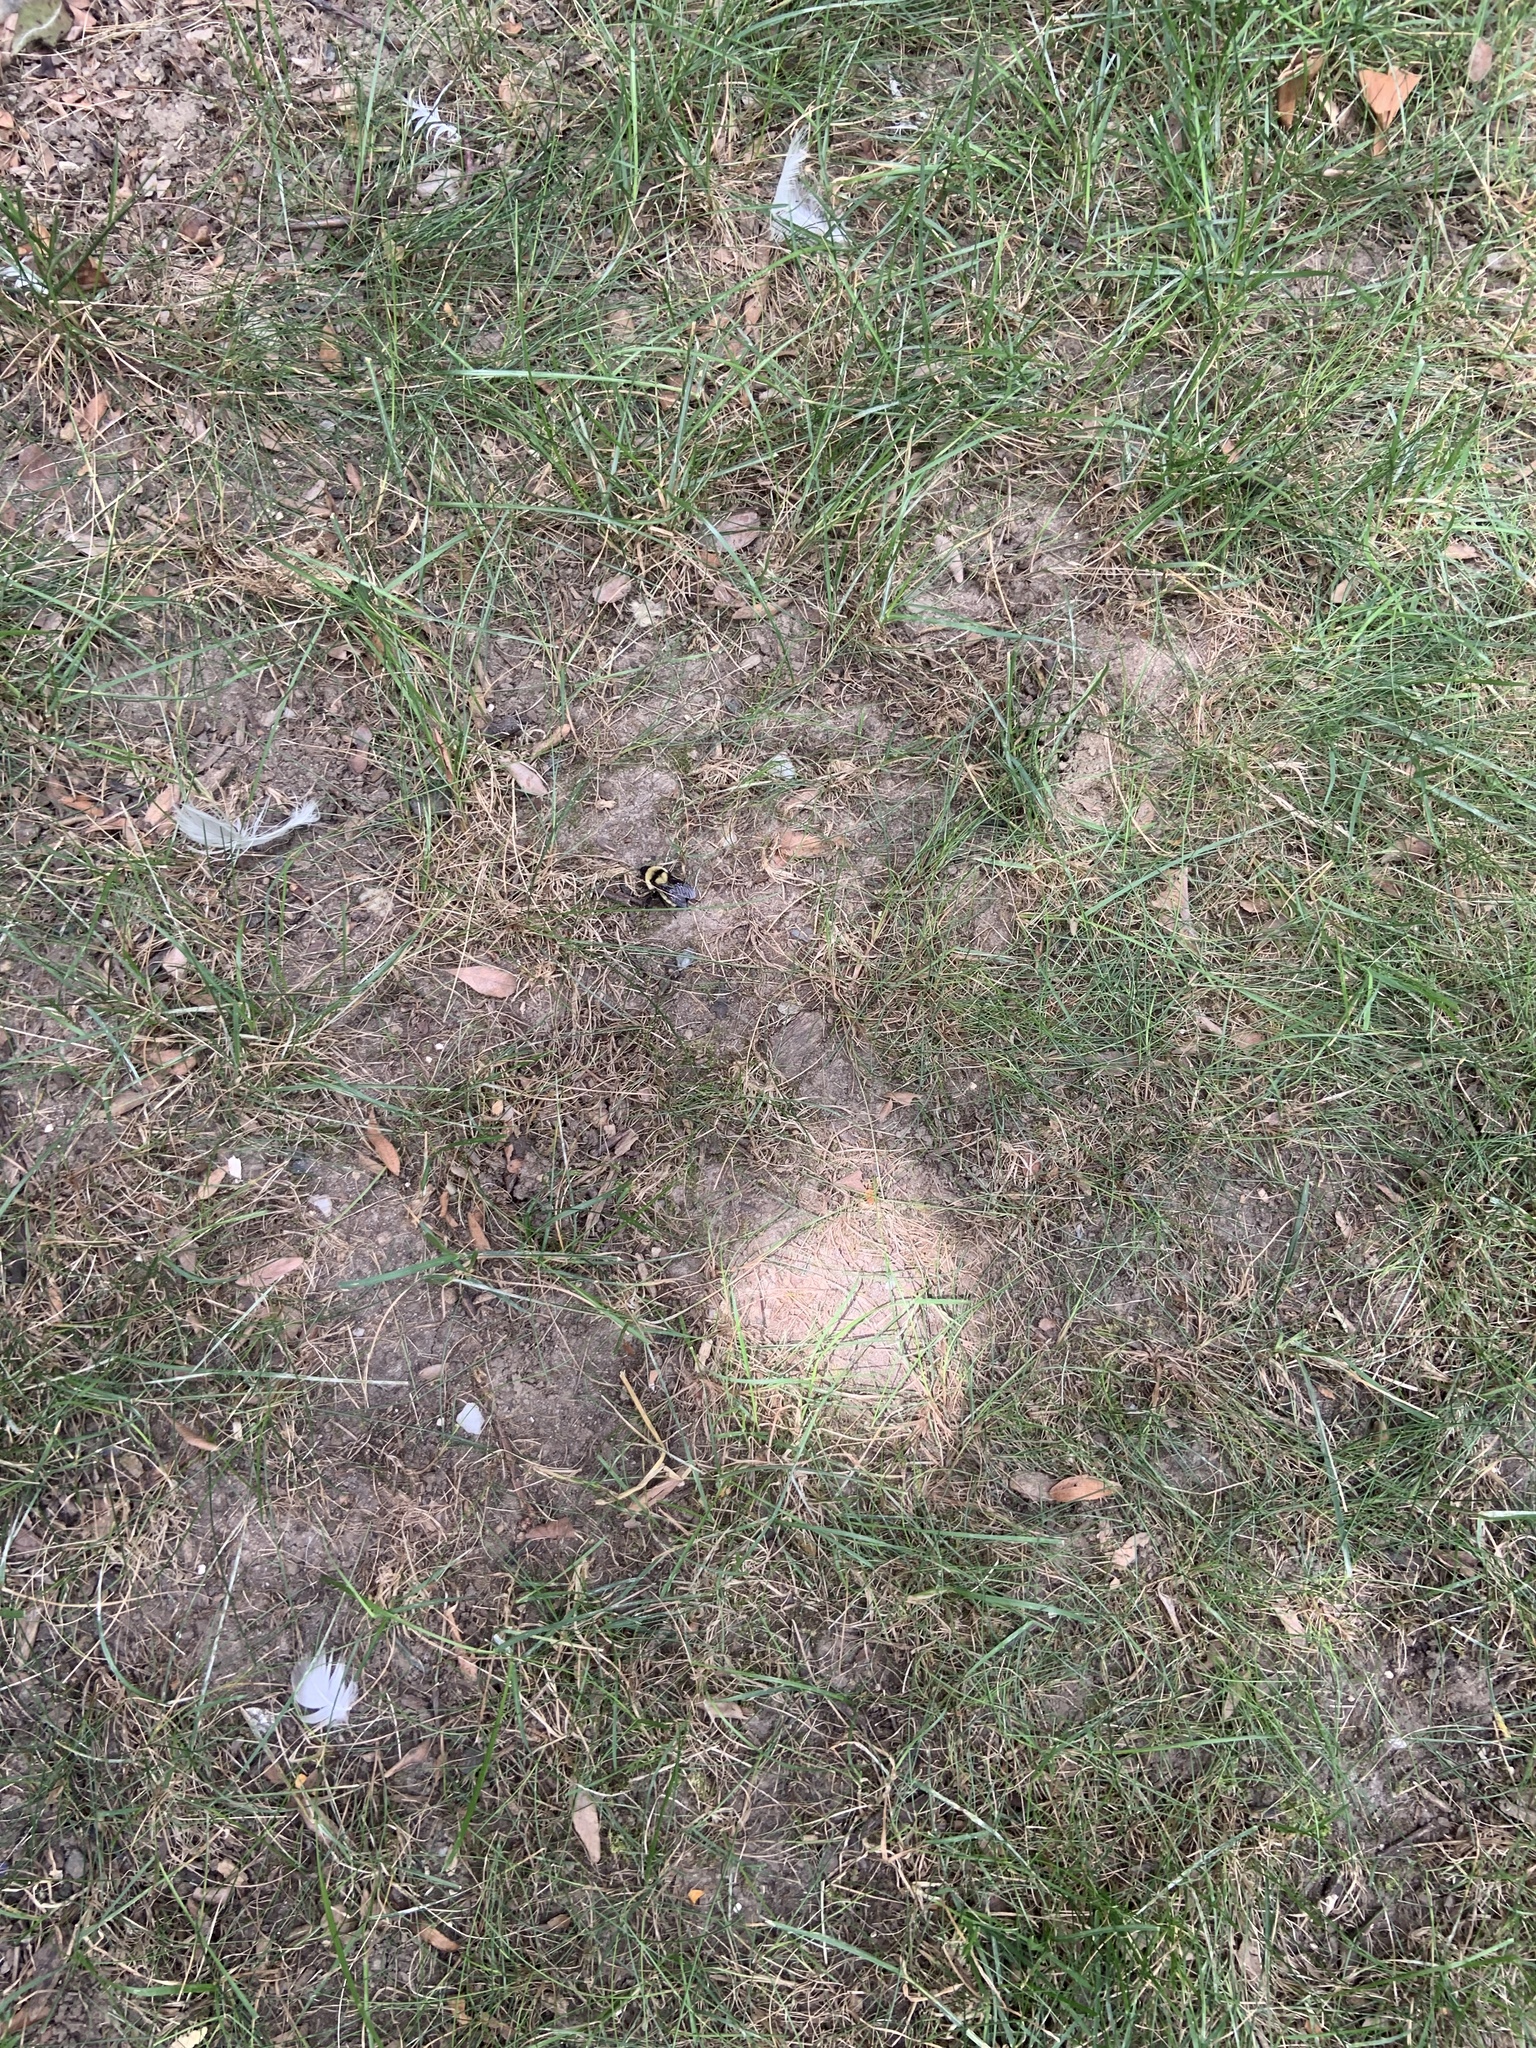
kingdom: Animalia
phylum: Arthropoda
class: Insecta
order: Hymenoptera
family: Apidae
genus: Bombus
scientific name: Bombus fervidus
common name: Yellow bumble bee
